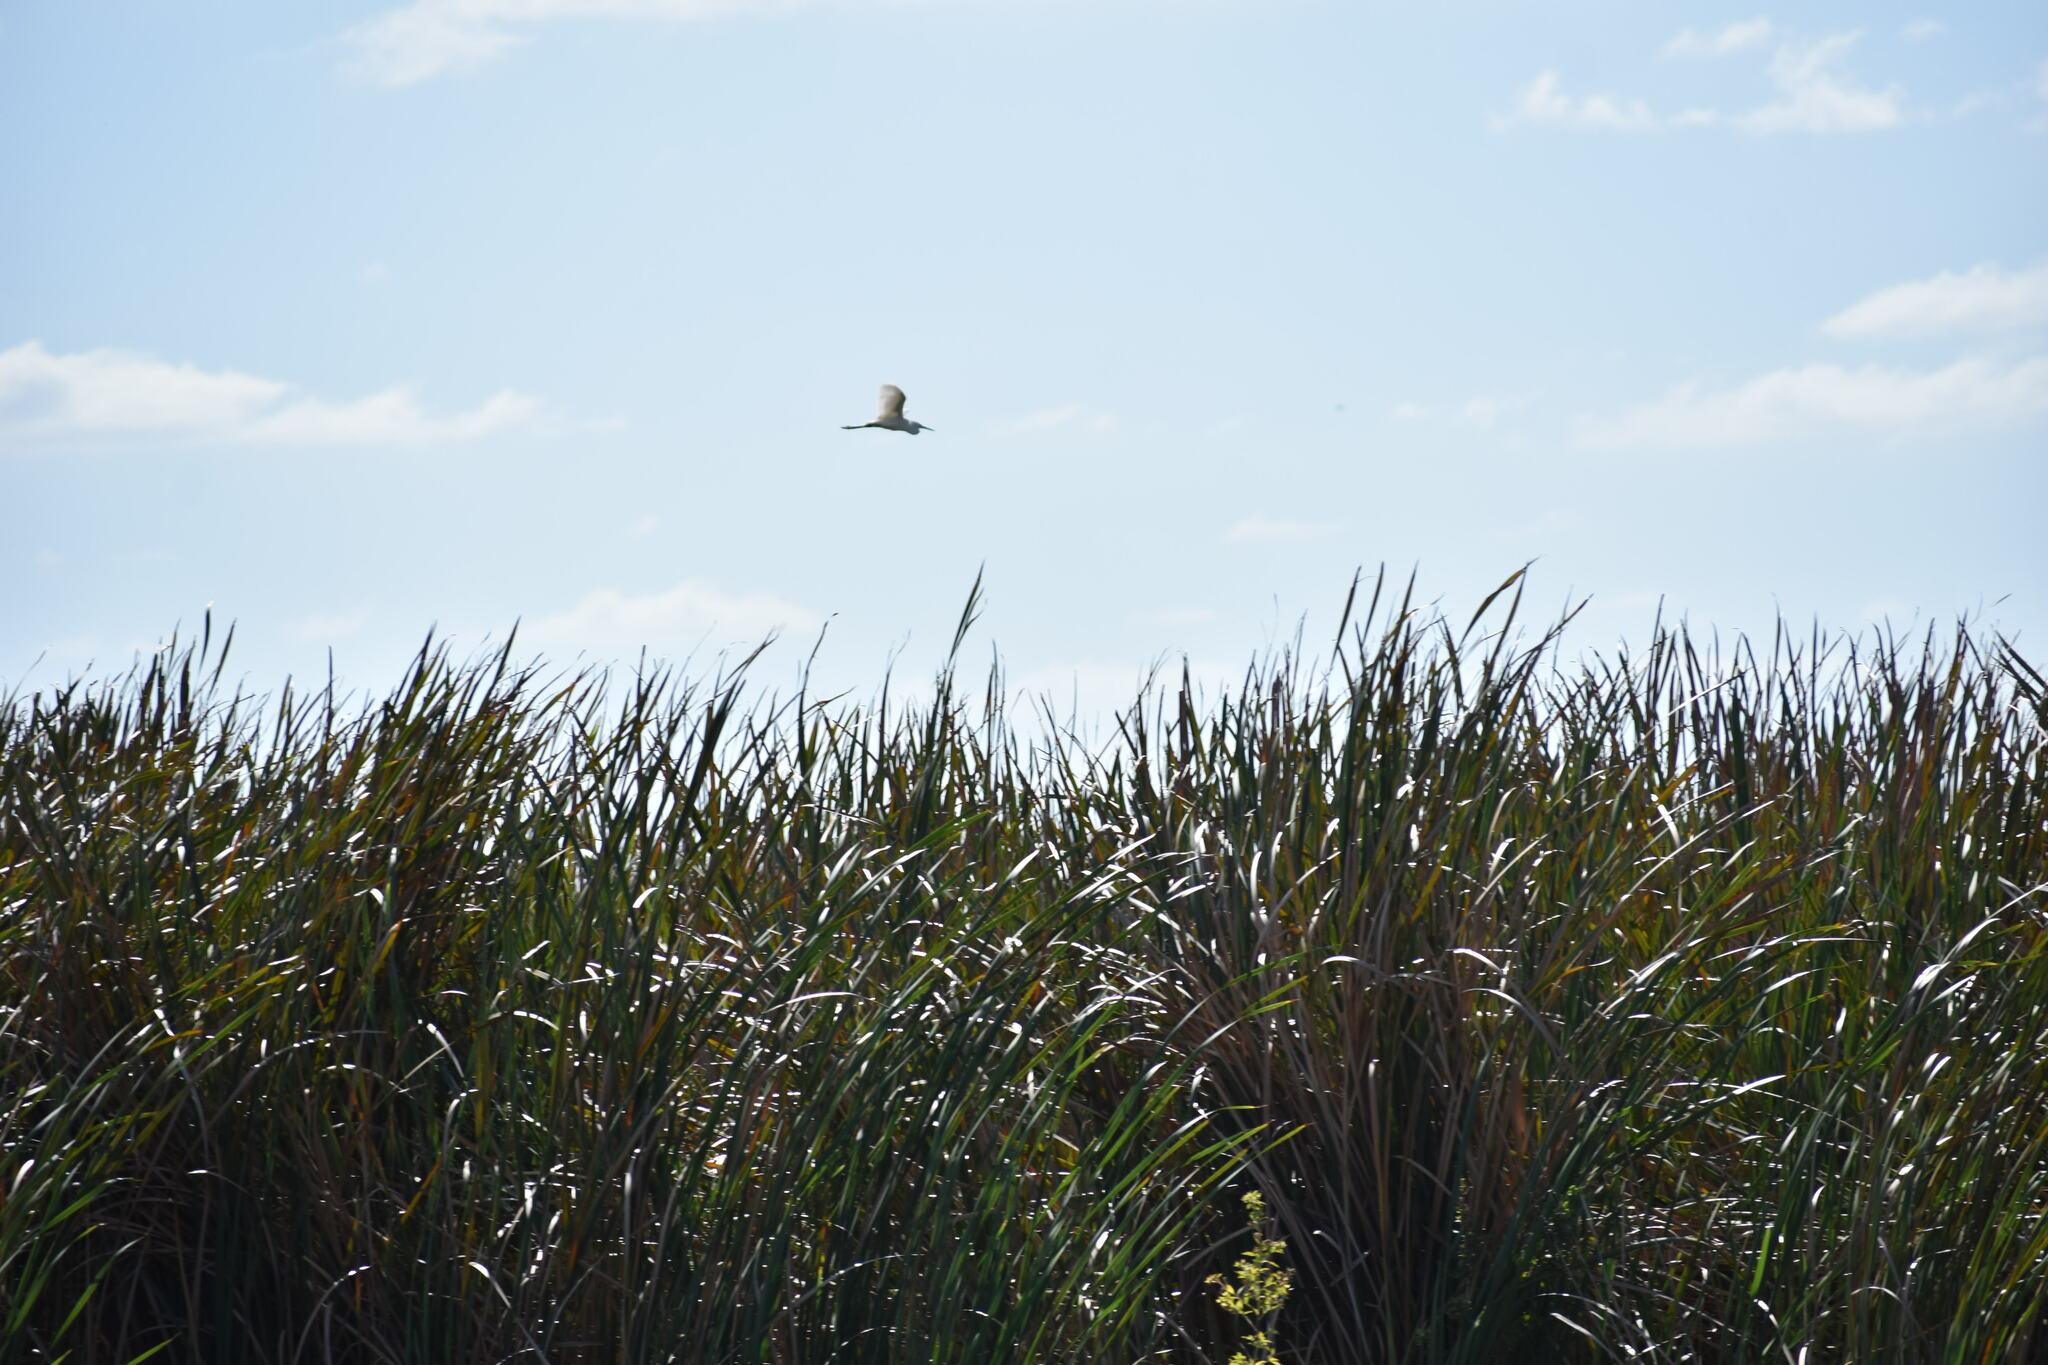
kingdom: Animalia
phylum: Chordata
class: Aves
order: Pelecaniformes
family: Ardeidae
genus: Ardea
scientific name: Ardea alba
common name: Great egret
